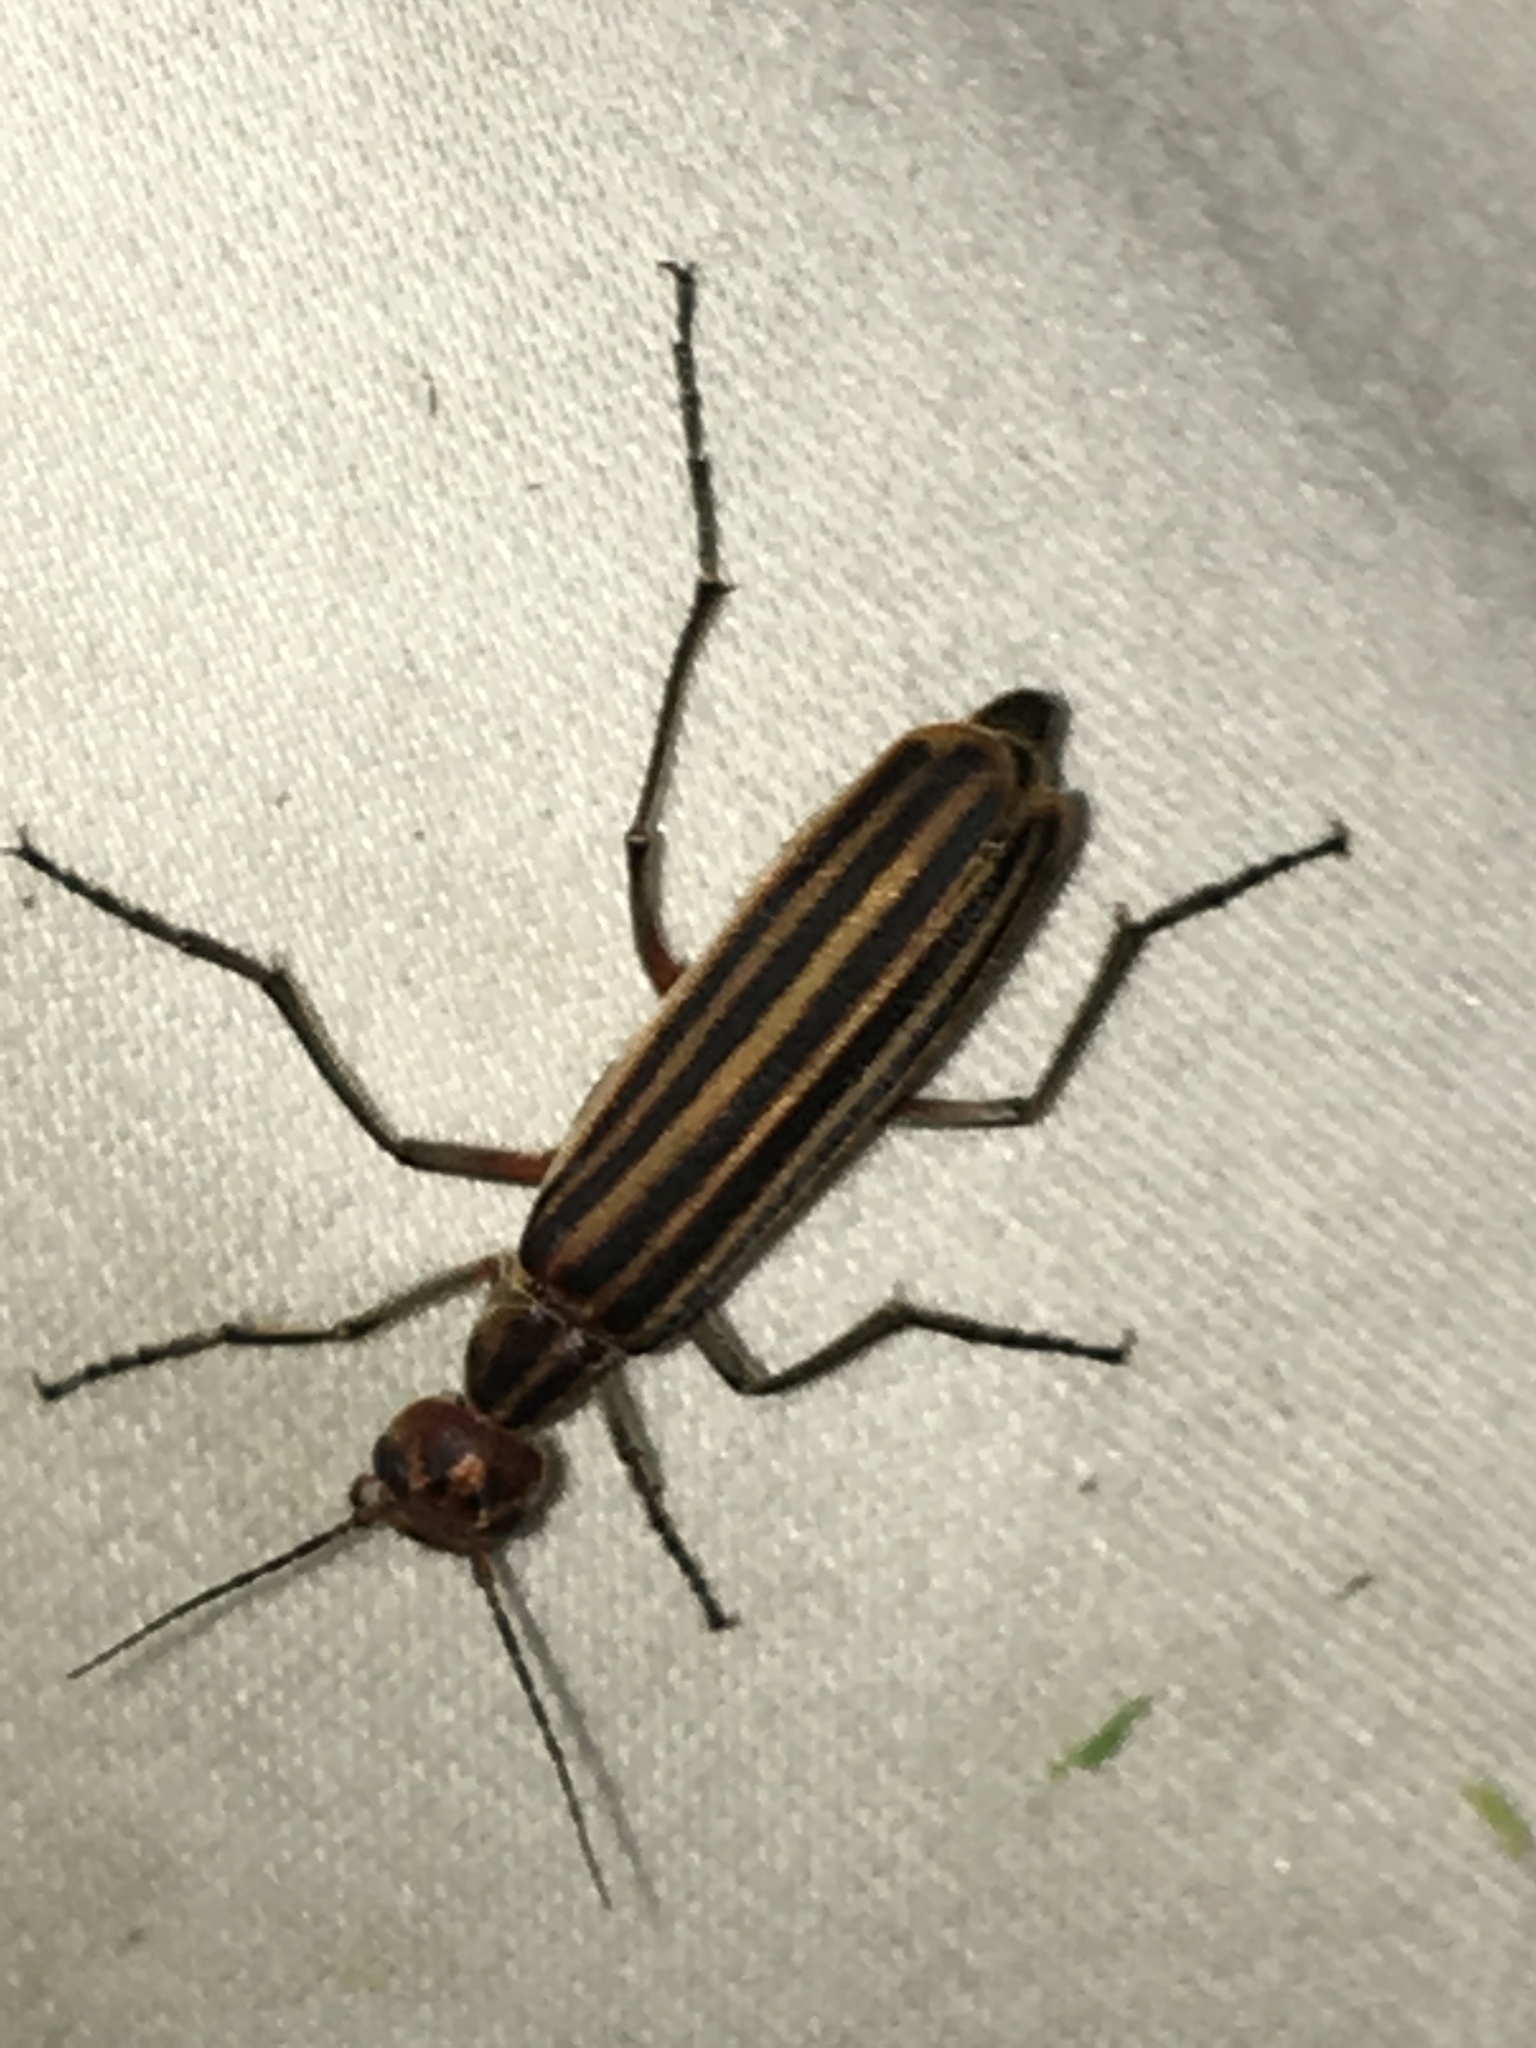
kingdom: Animalia
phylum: Arthropoda
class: Insecta
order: Coleoptera
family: Meloidae
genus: Epicauta
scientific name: Epicauta vittata
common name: Old-fashioned potato beetle
